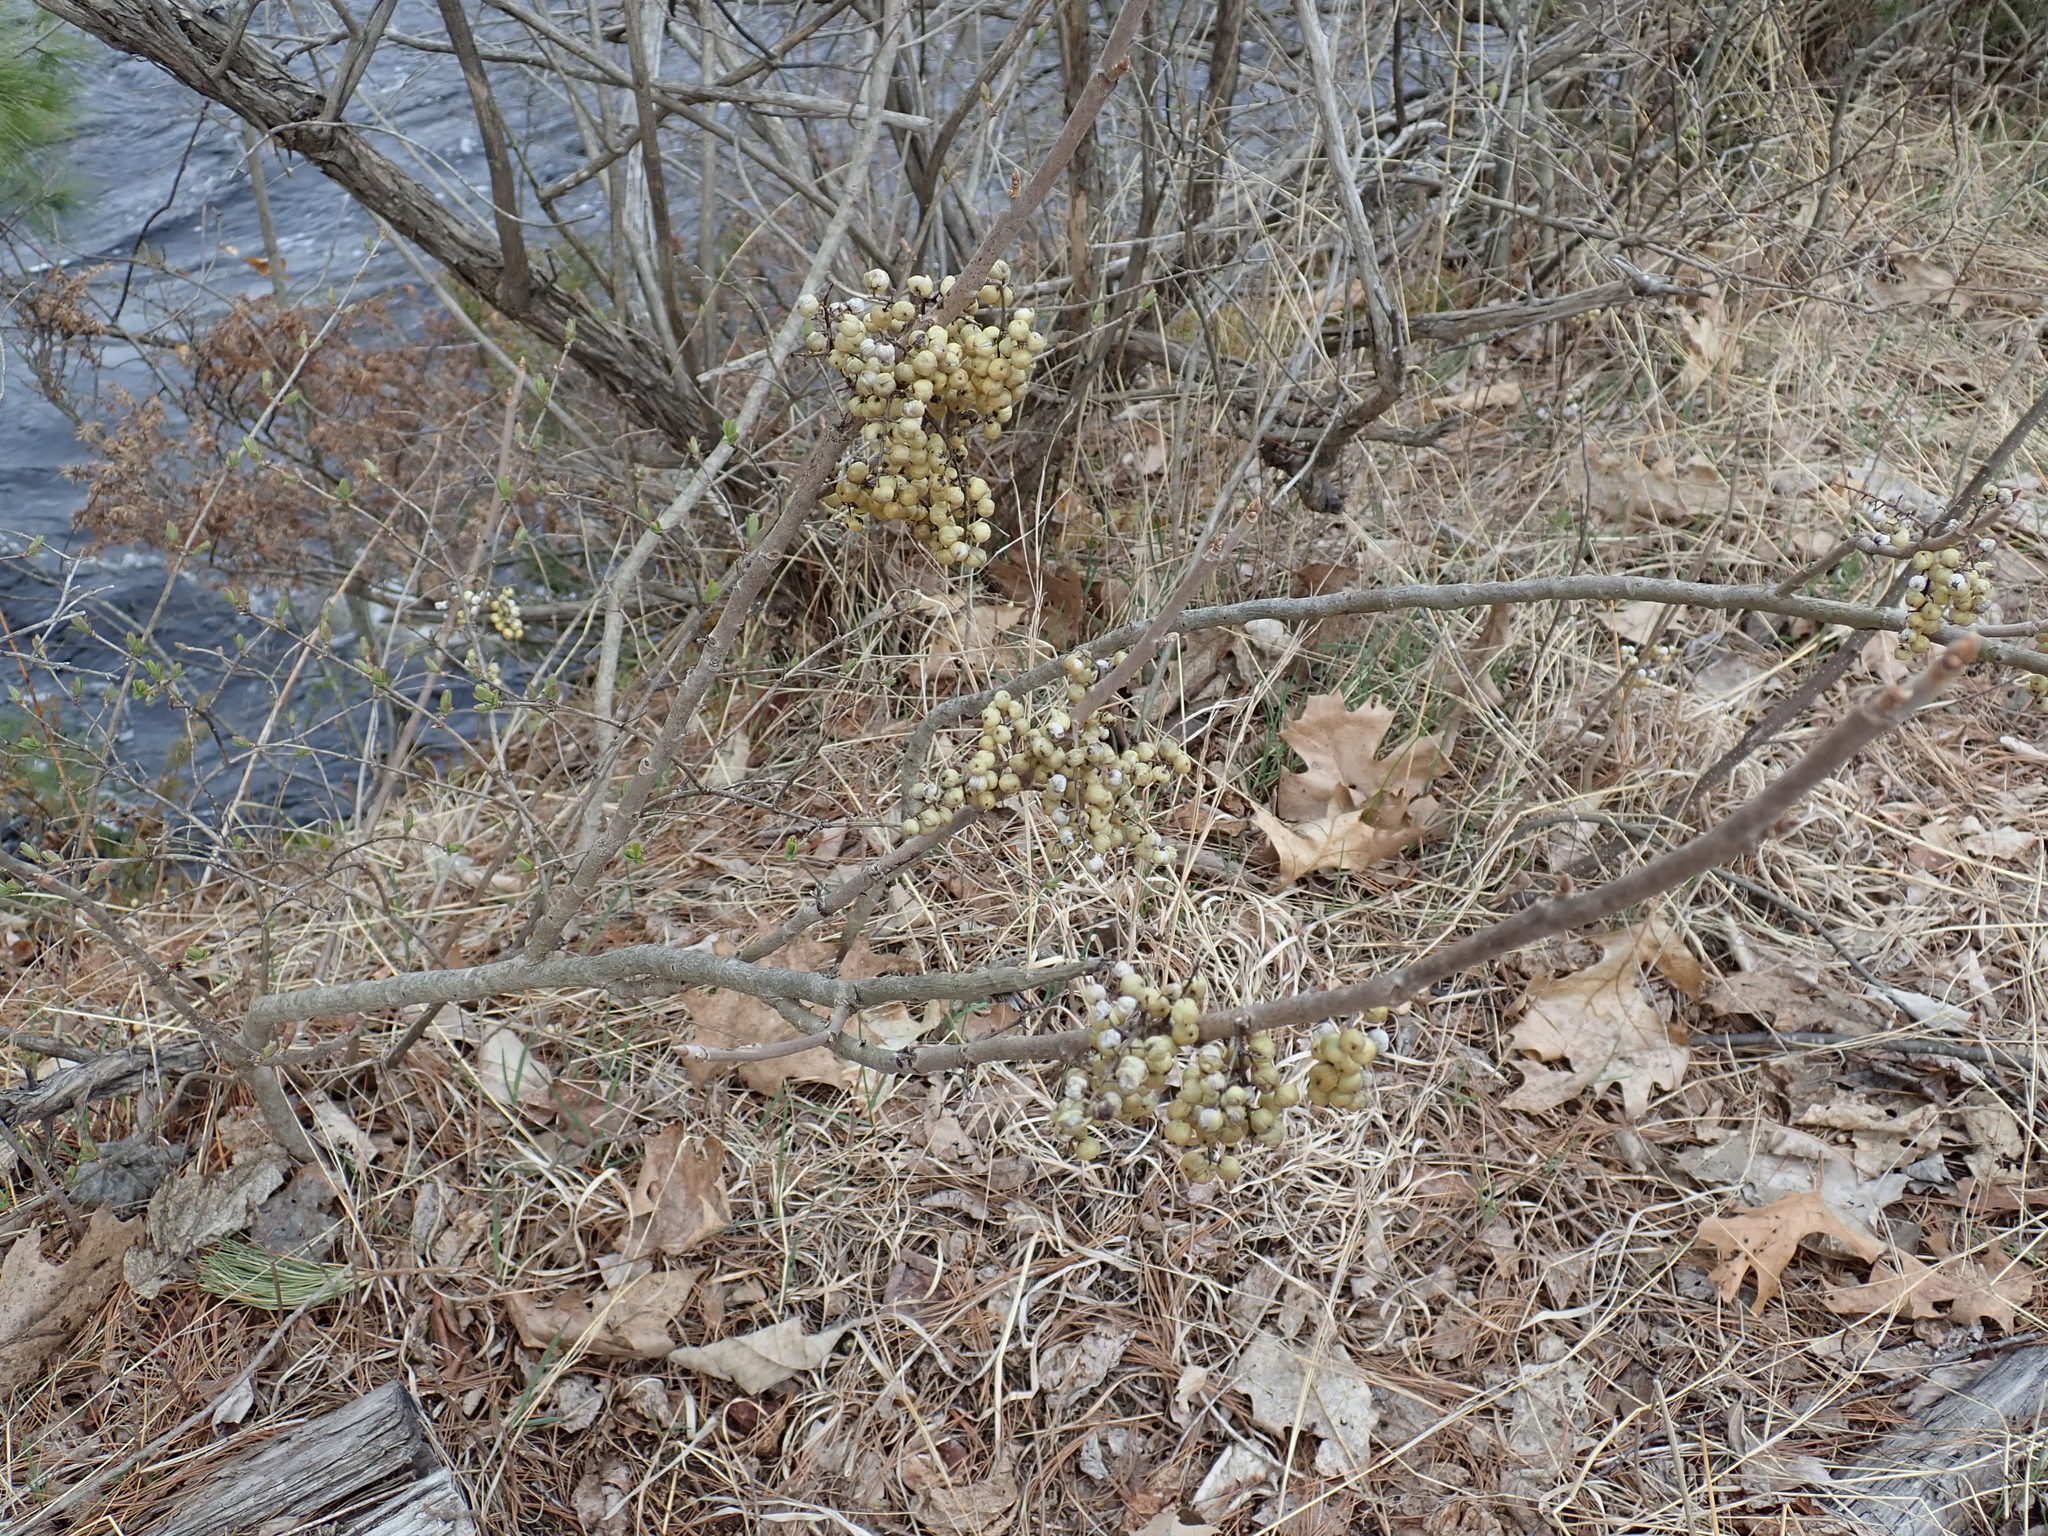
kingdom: Plantae
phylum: Tracheophyta
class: Magnoliopsida
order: Sapindales
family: Anacardiaceae
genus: Toxicodendron
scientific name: Toxicodendron vernix
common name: Poison sumac
